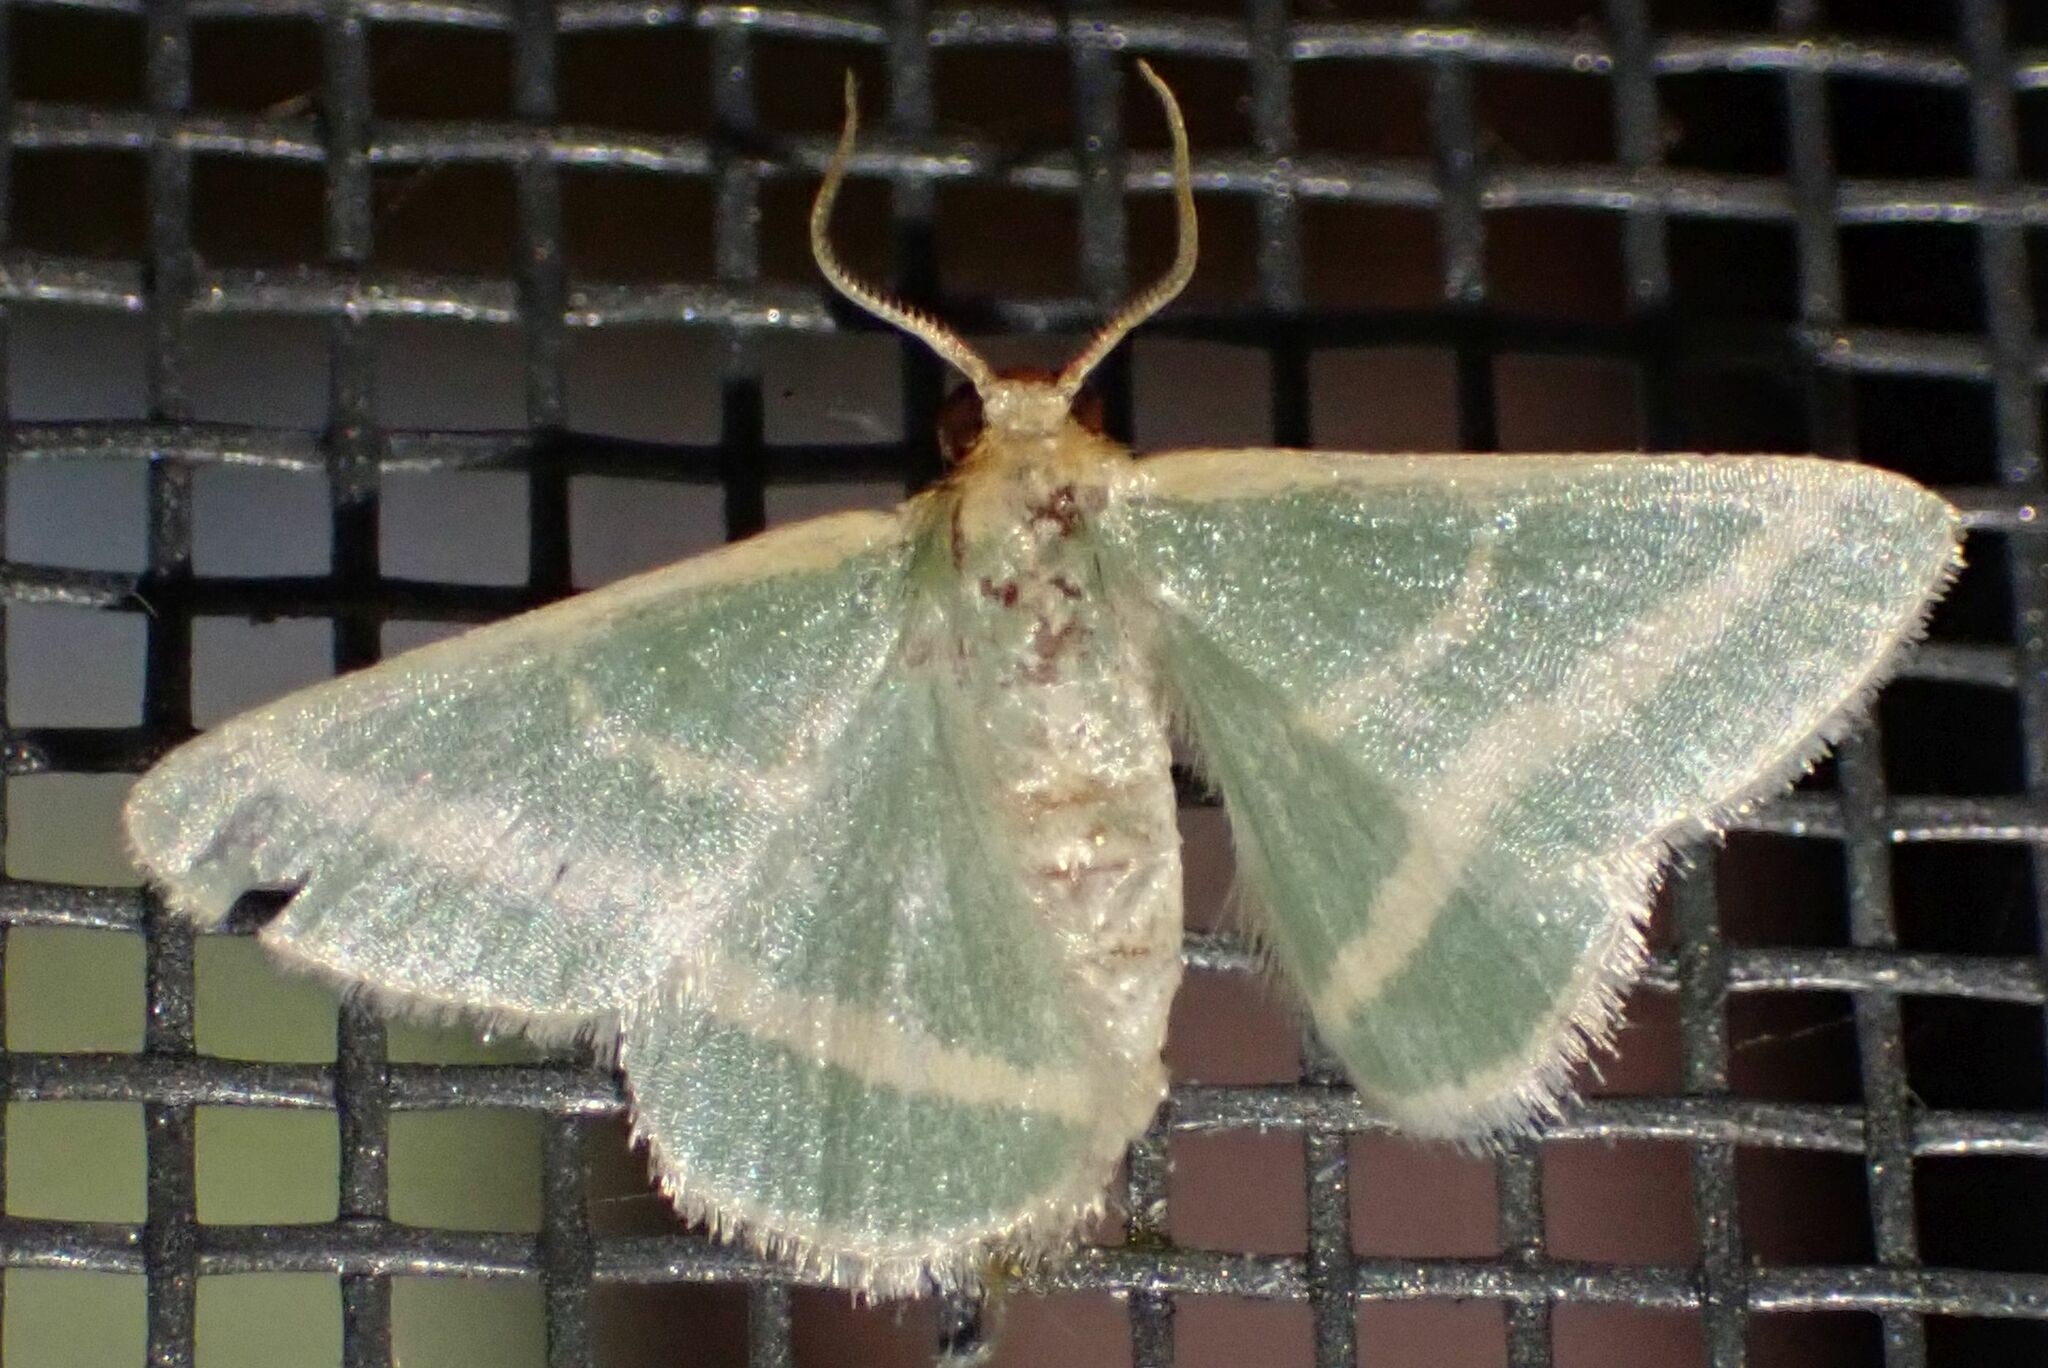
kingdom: Animalia
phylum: Arthropoda
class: Insecta
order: Lepidoptera
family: Geometridae
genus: Mixocera
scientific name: Mixocera frustratoria
